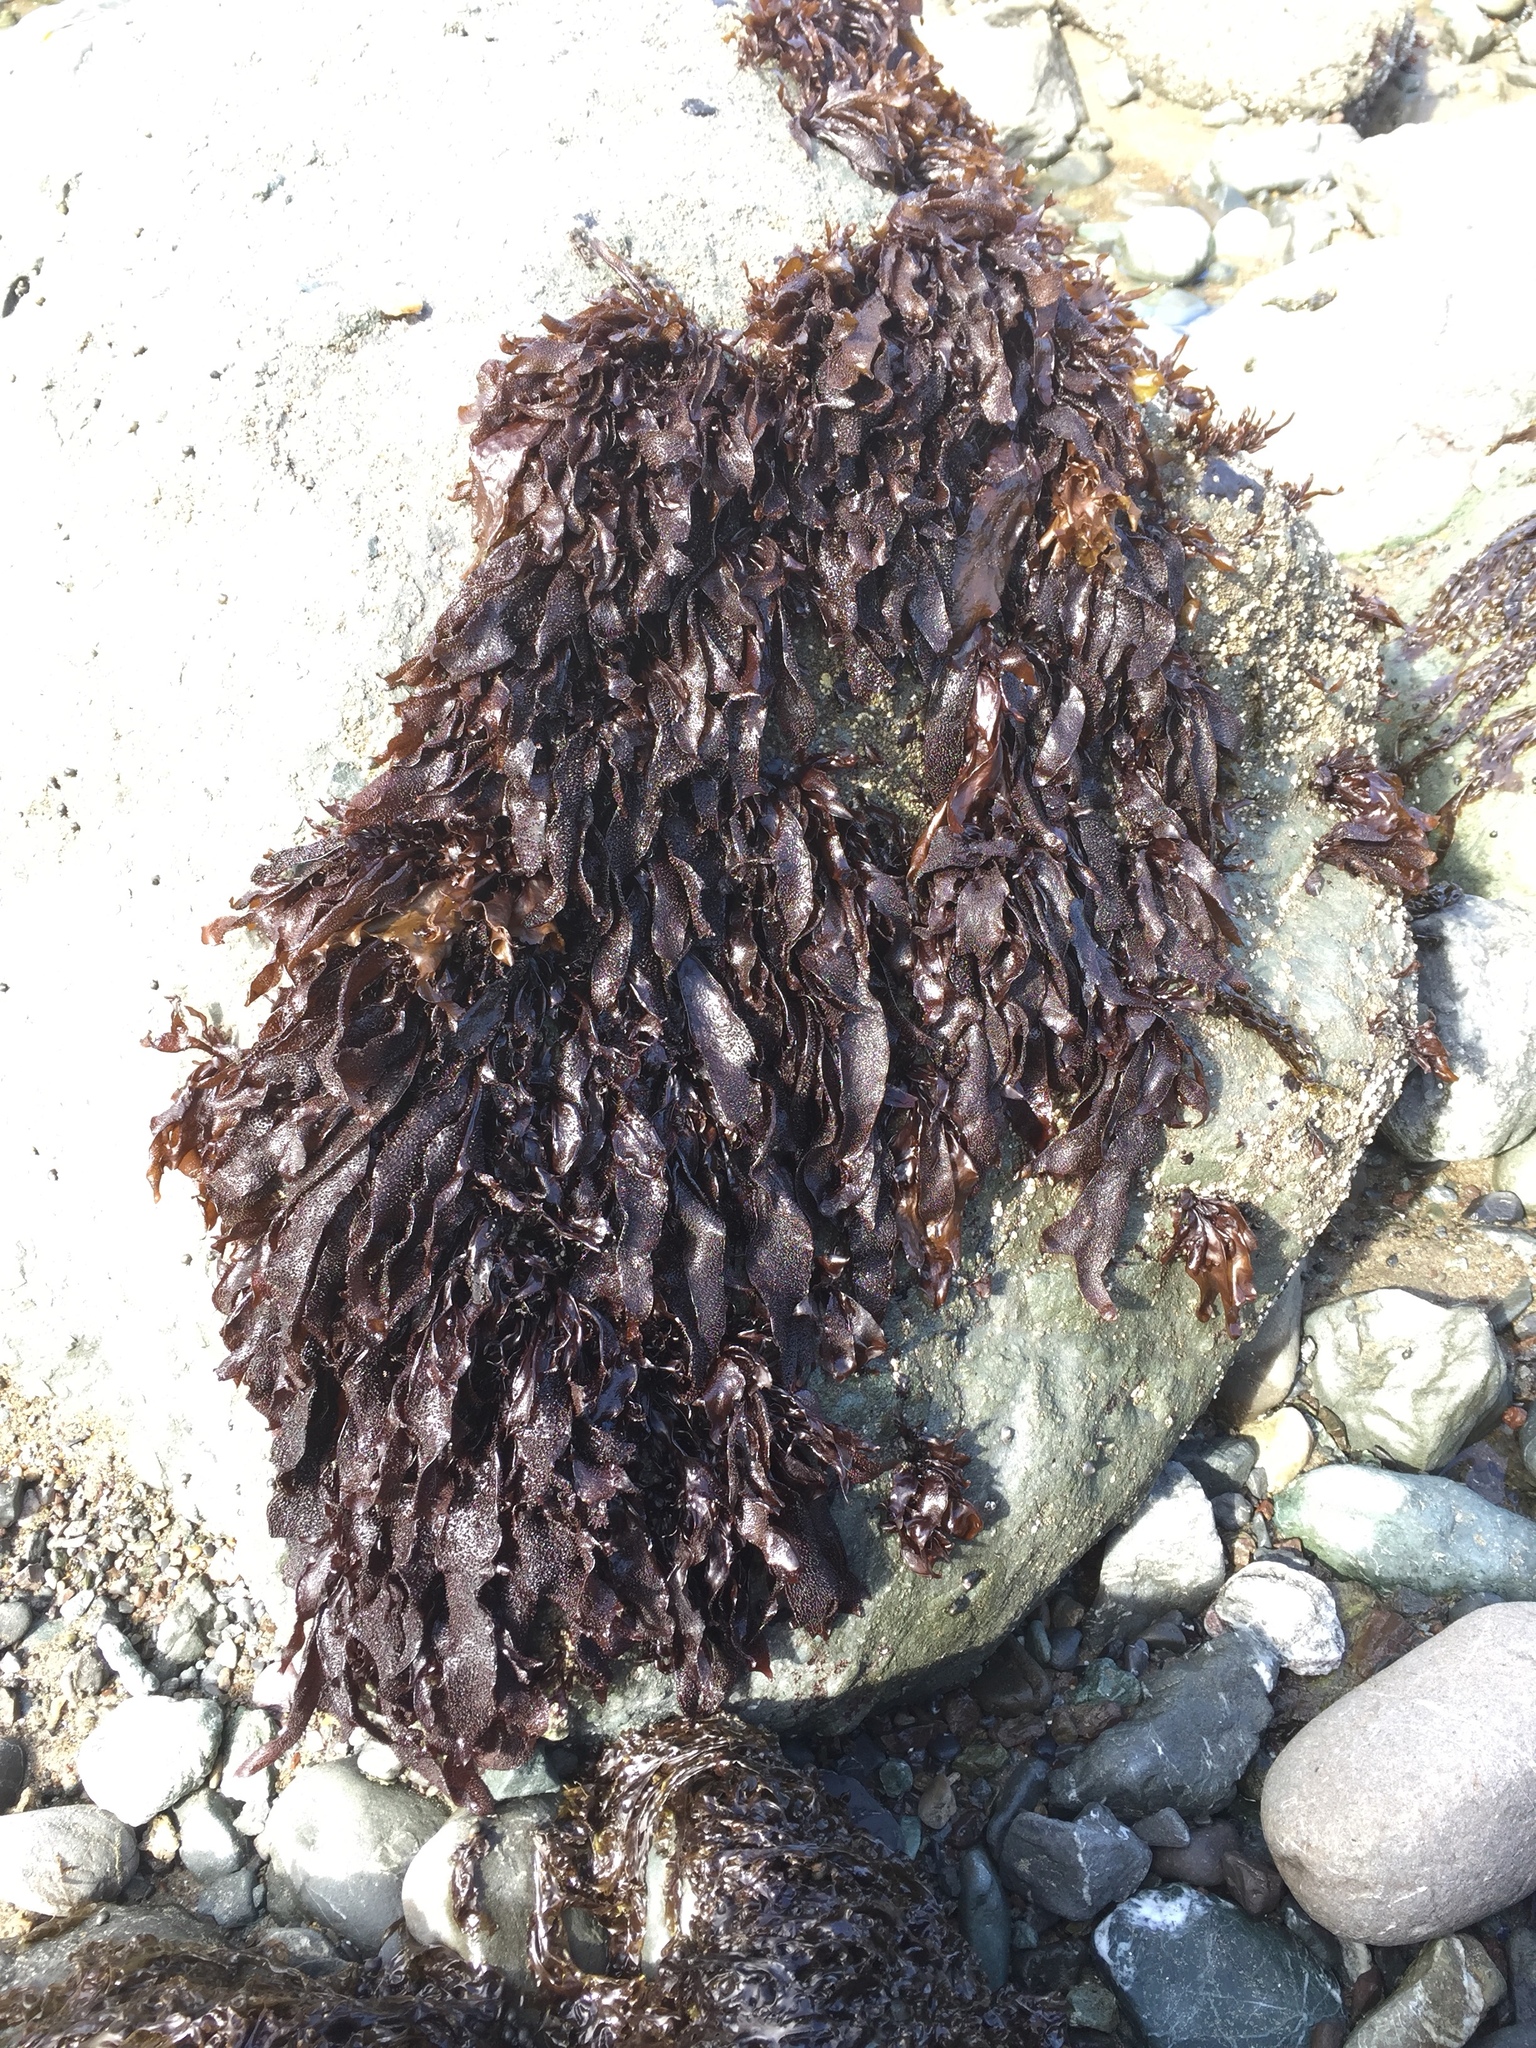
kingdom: Plantae
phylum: Rhodophyta
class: Florideophyceae
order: Gigartinales
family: Phyllophoraceae
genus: Mastocarpus
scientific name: Mastocarpus papillatus
